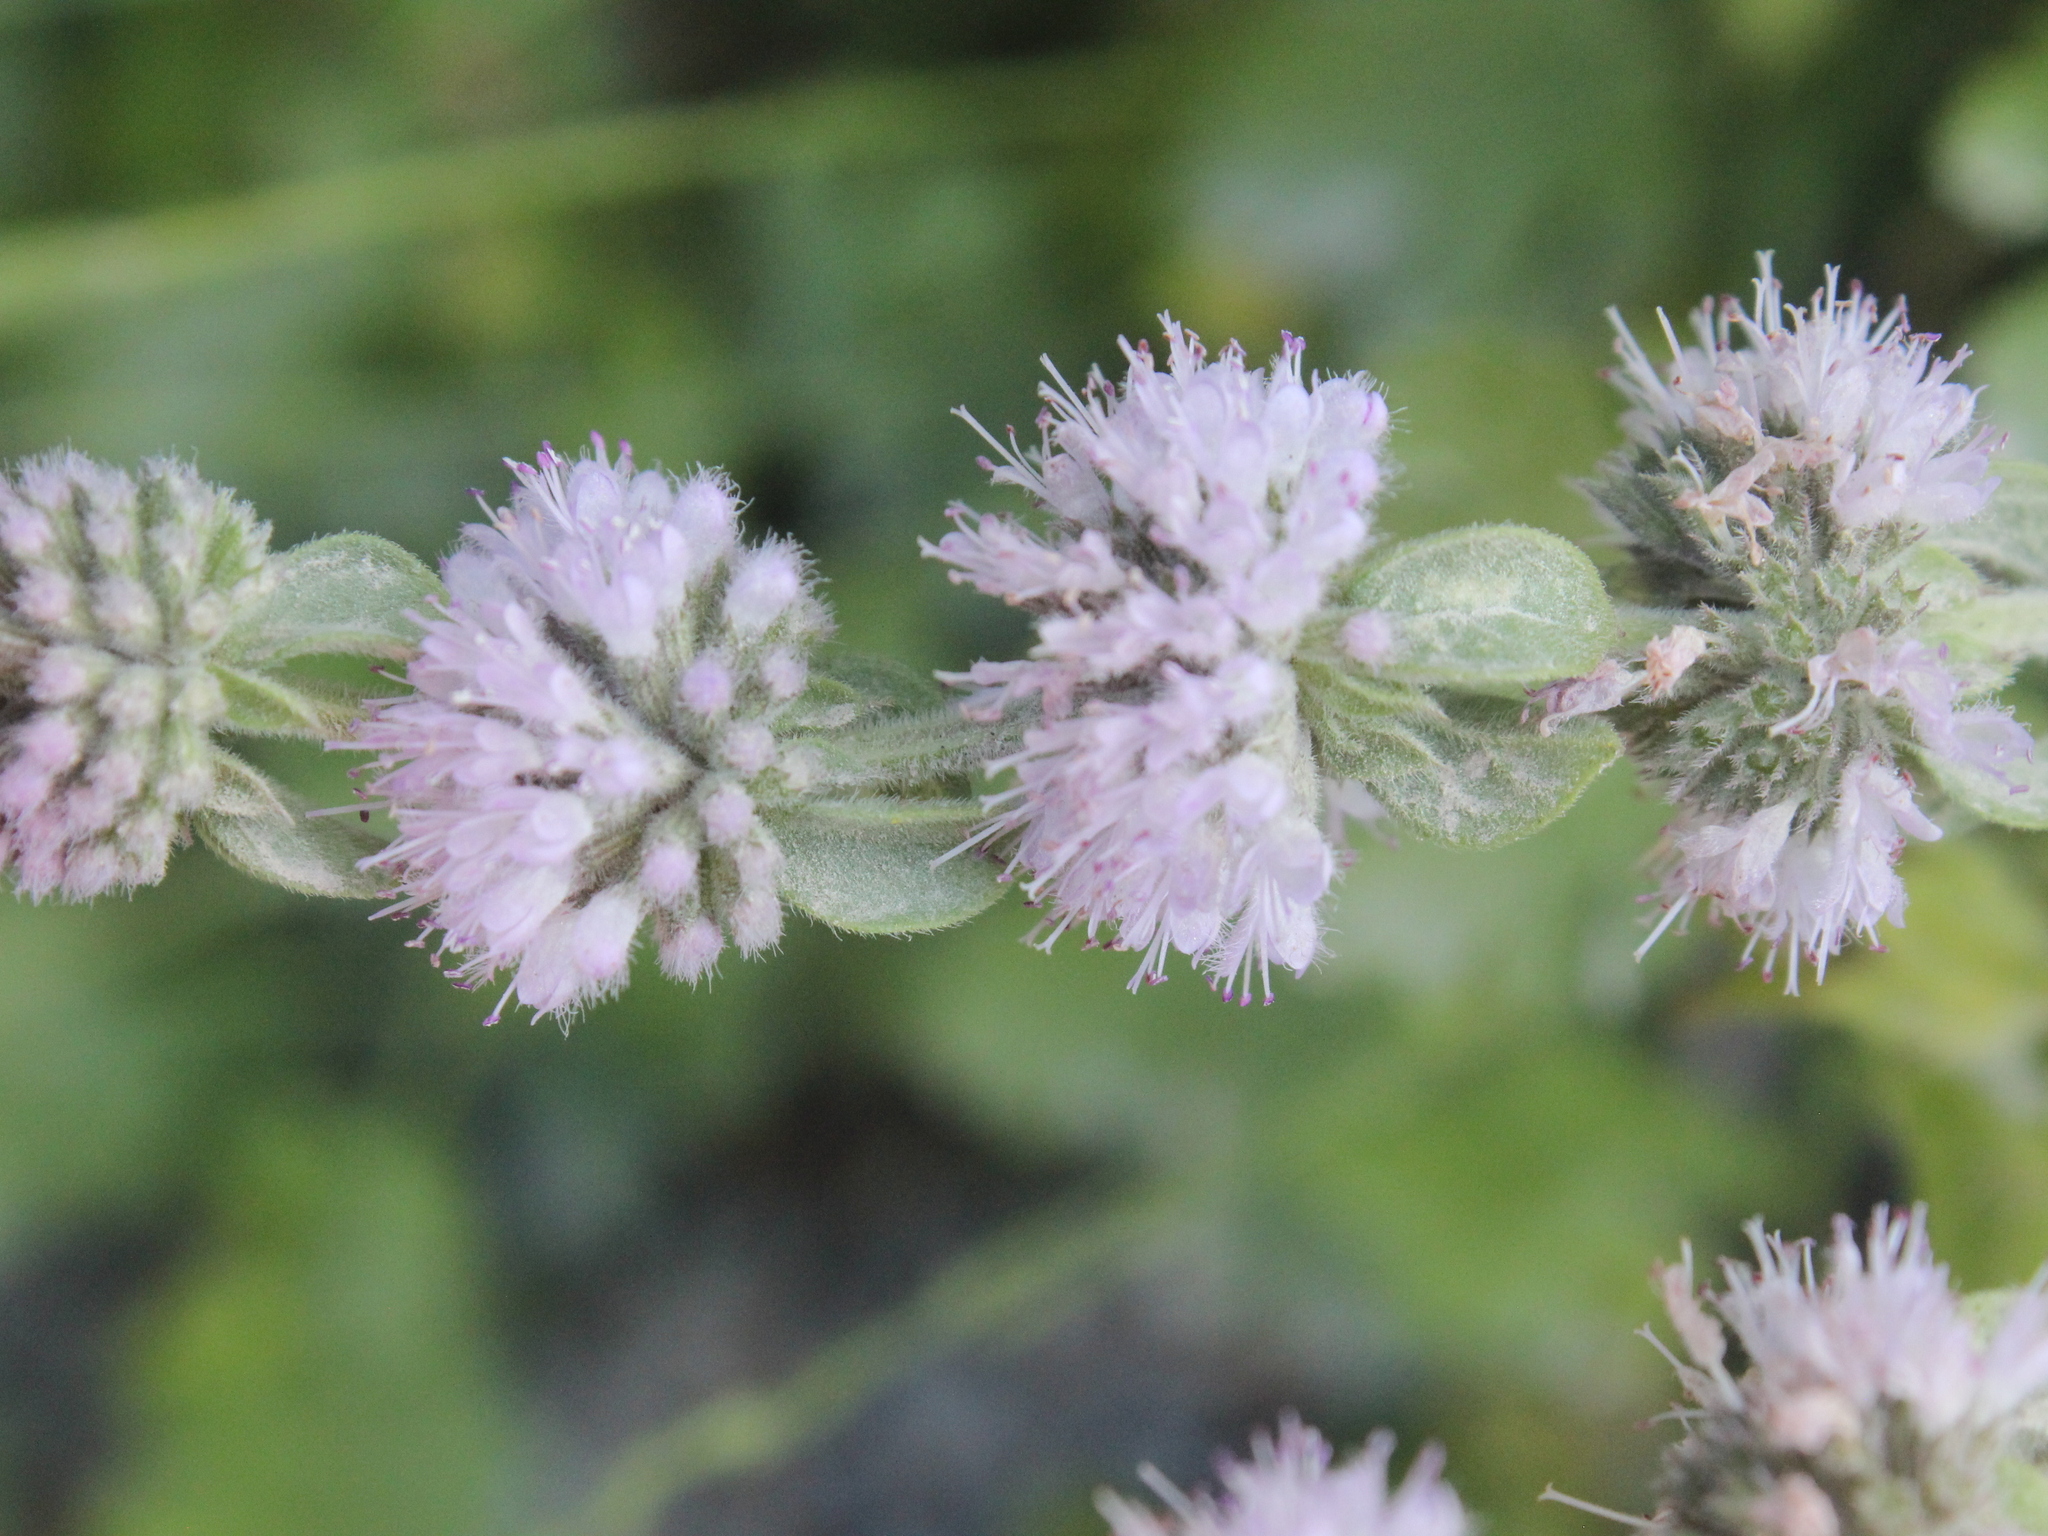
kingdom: Plantae
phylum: Tracheophyta
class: Magnoliopsida
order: Lamiales
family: Lamiaceae
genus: Marrubium
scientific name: Marrubium vulgare
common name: Horehound
